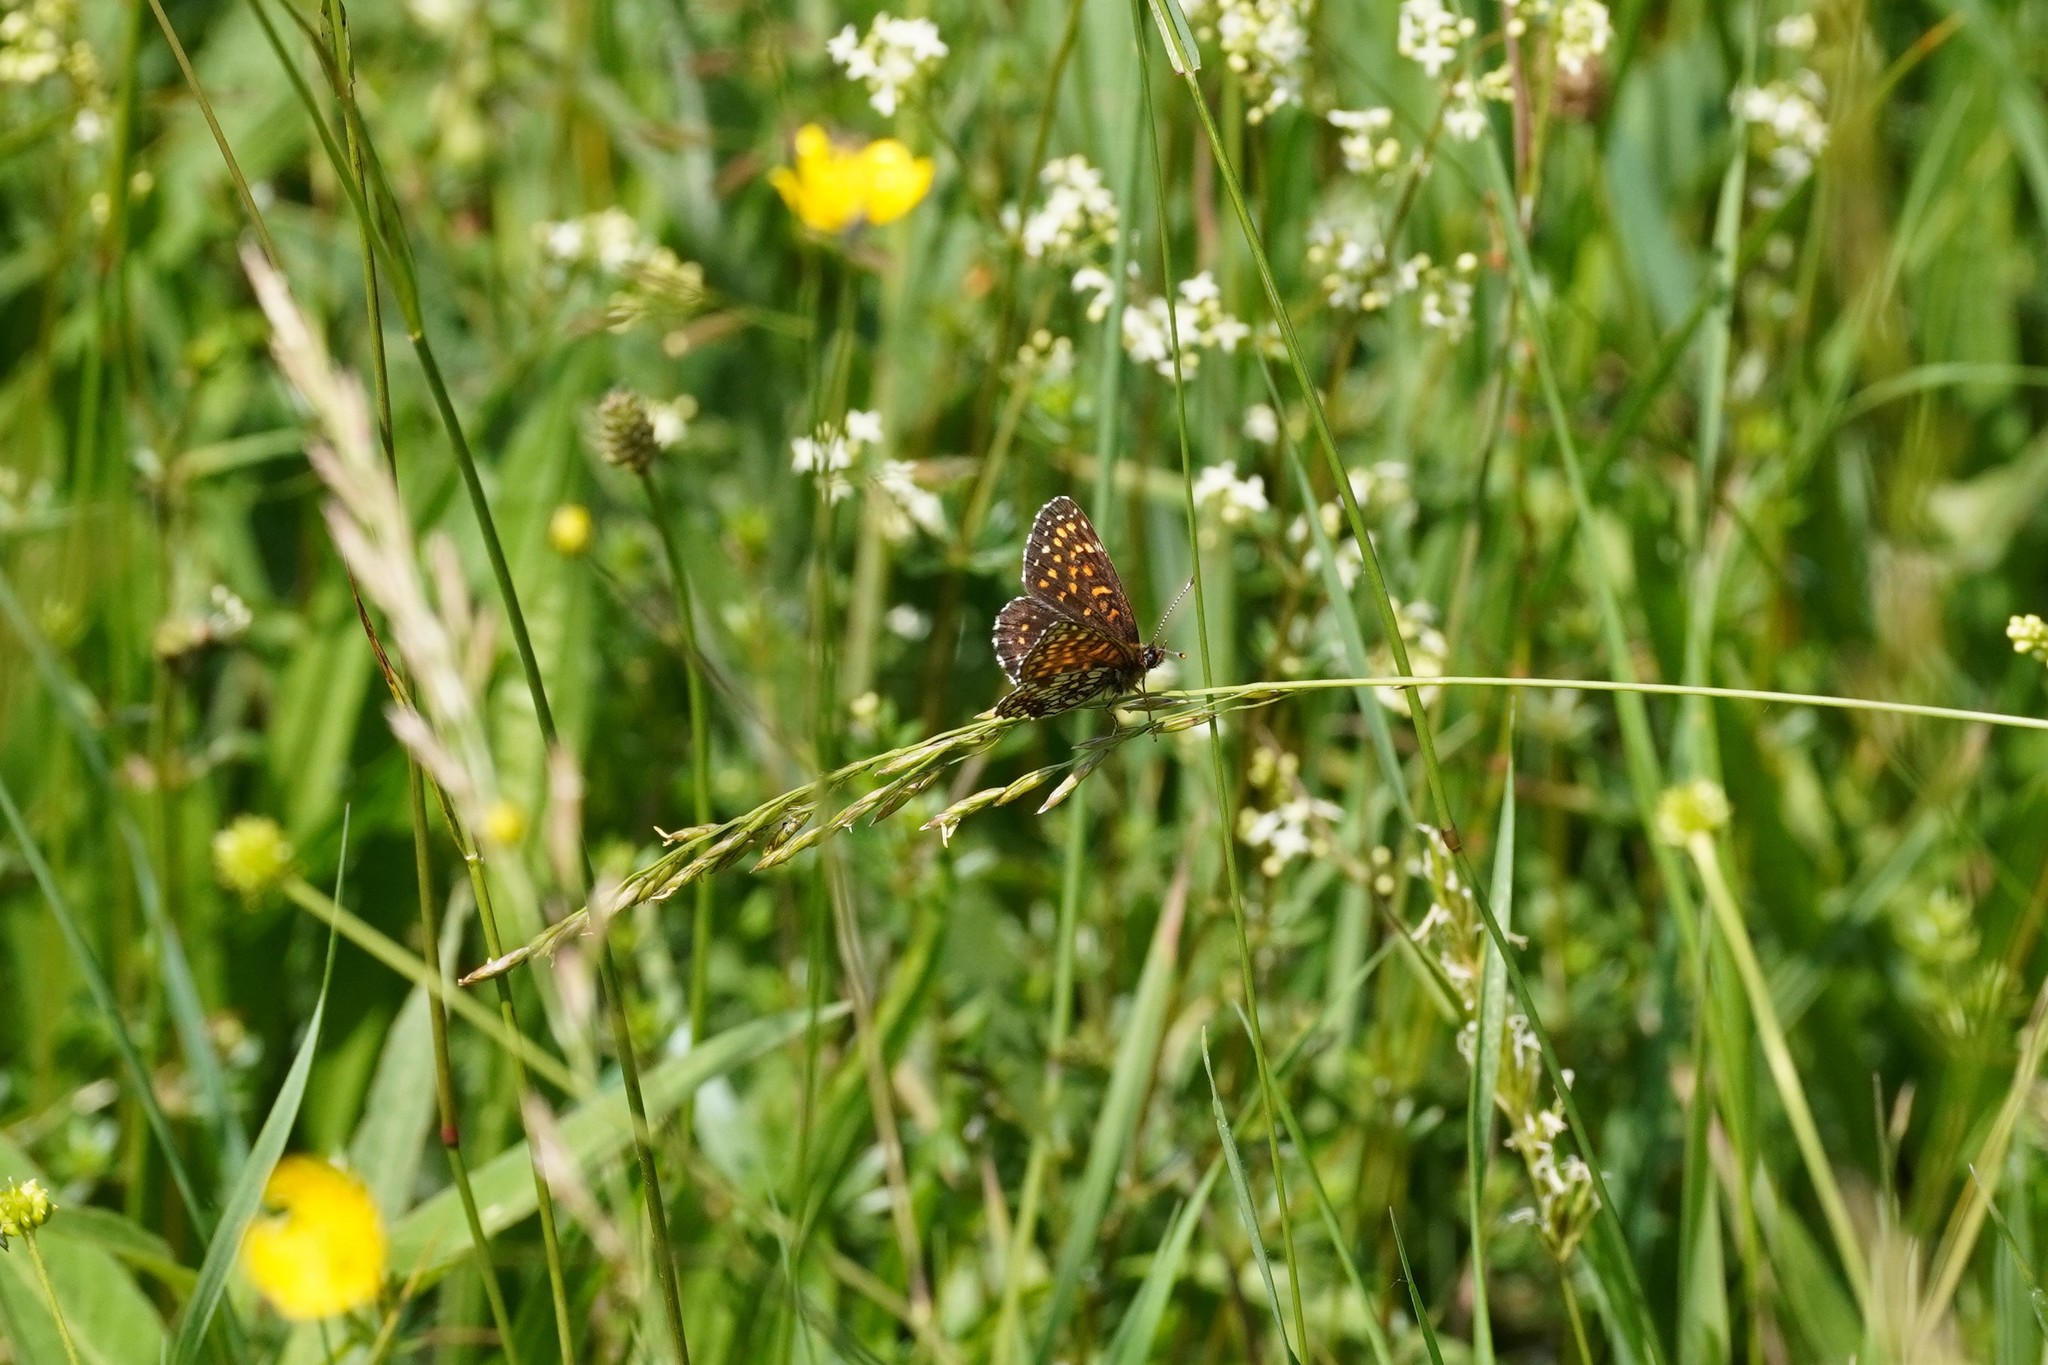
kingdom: Animalia
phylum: Arthropoda
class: Insecta
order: Lepidoptera
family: Nymphalidae
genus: Melitaea
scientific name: Melitaea diamina
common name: False heath fritillary
